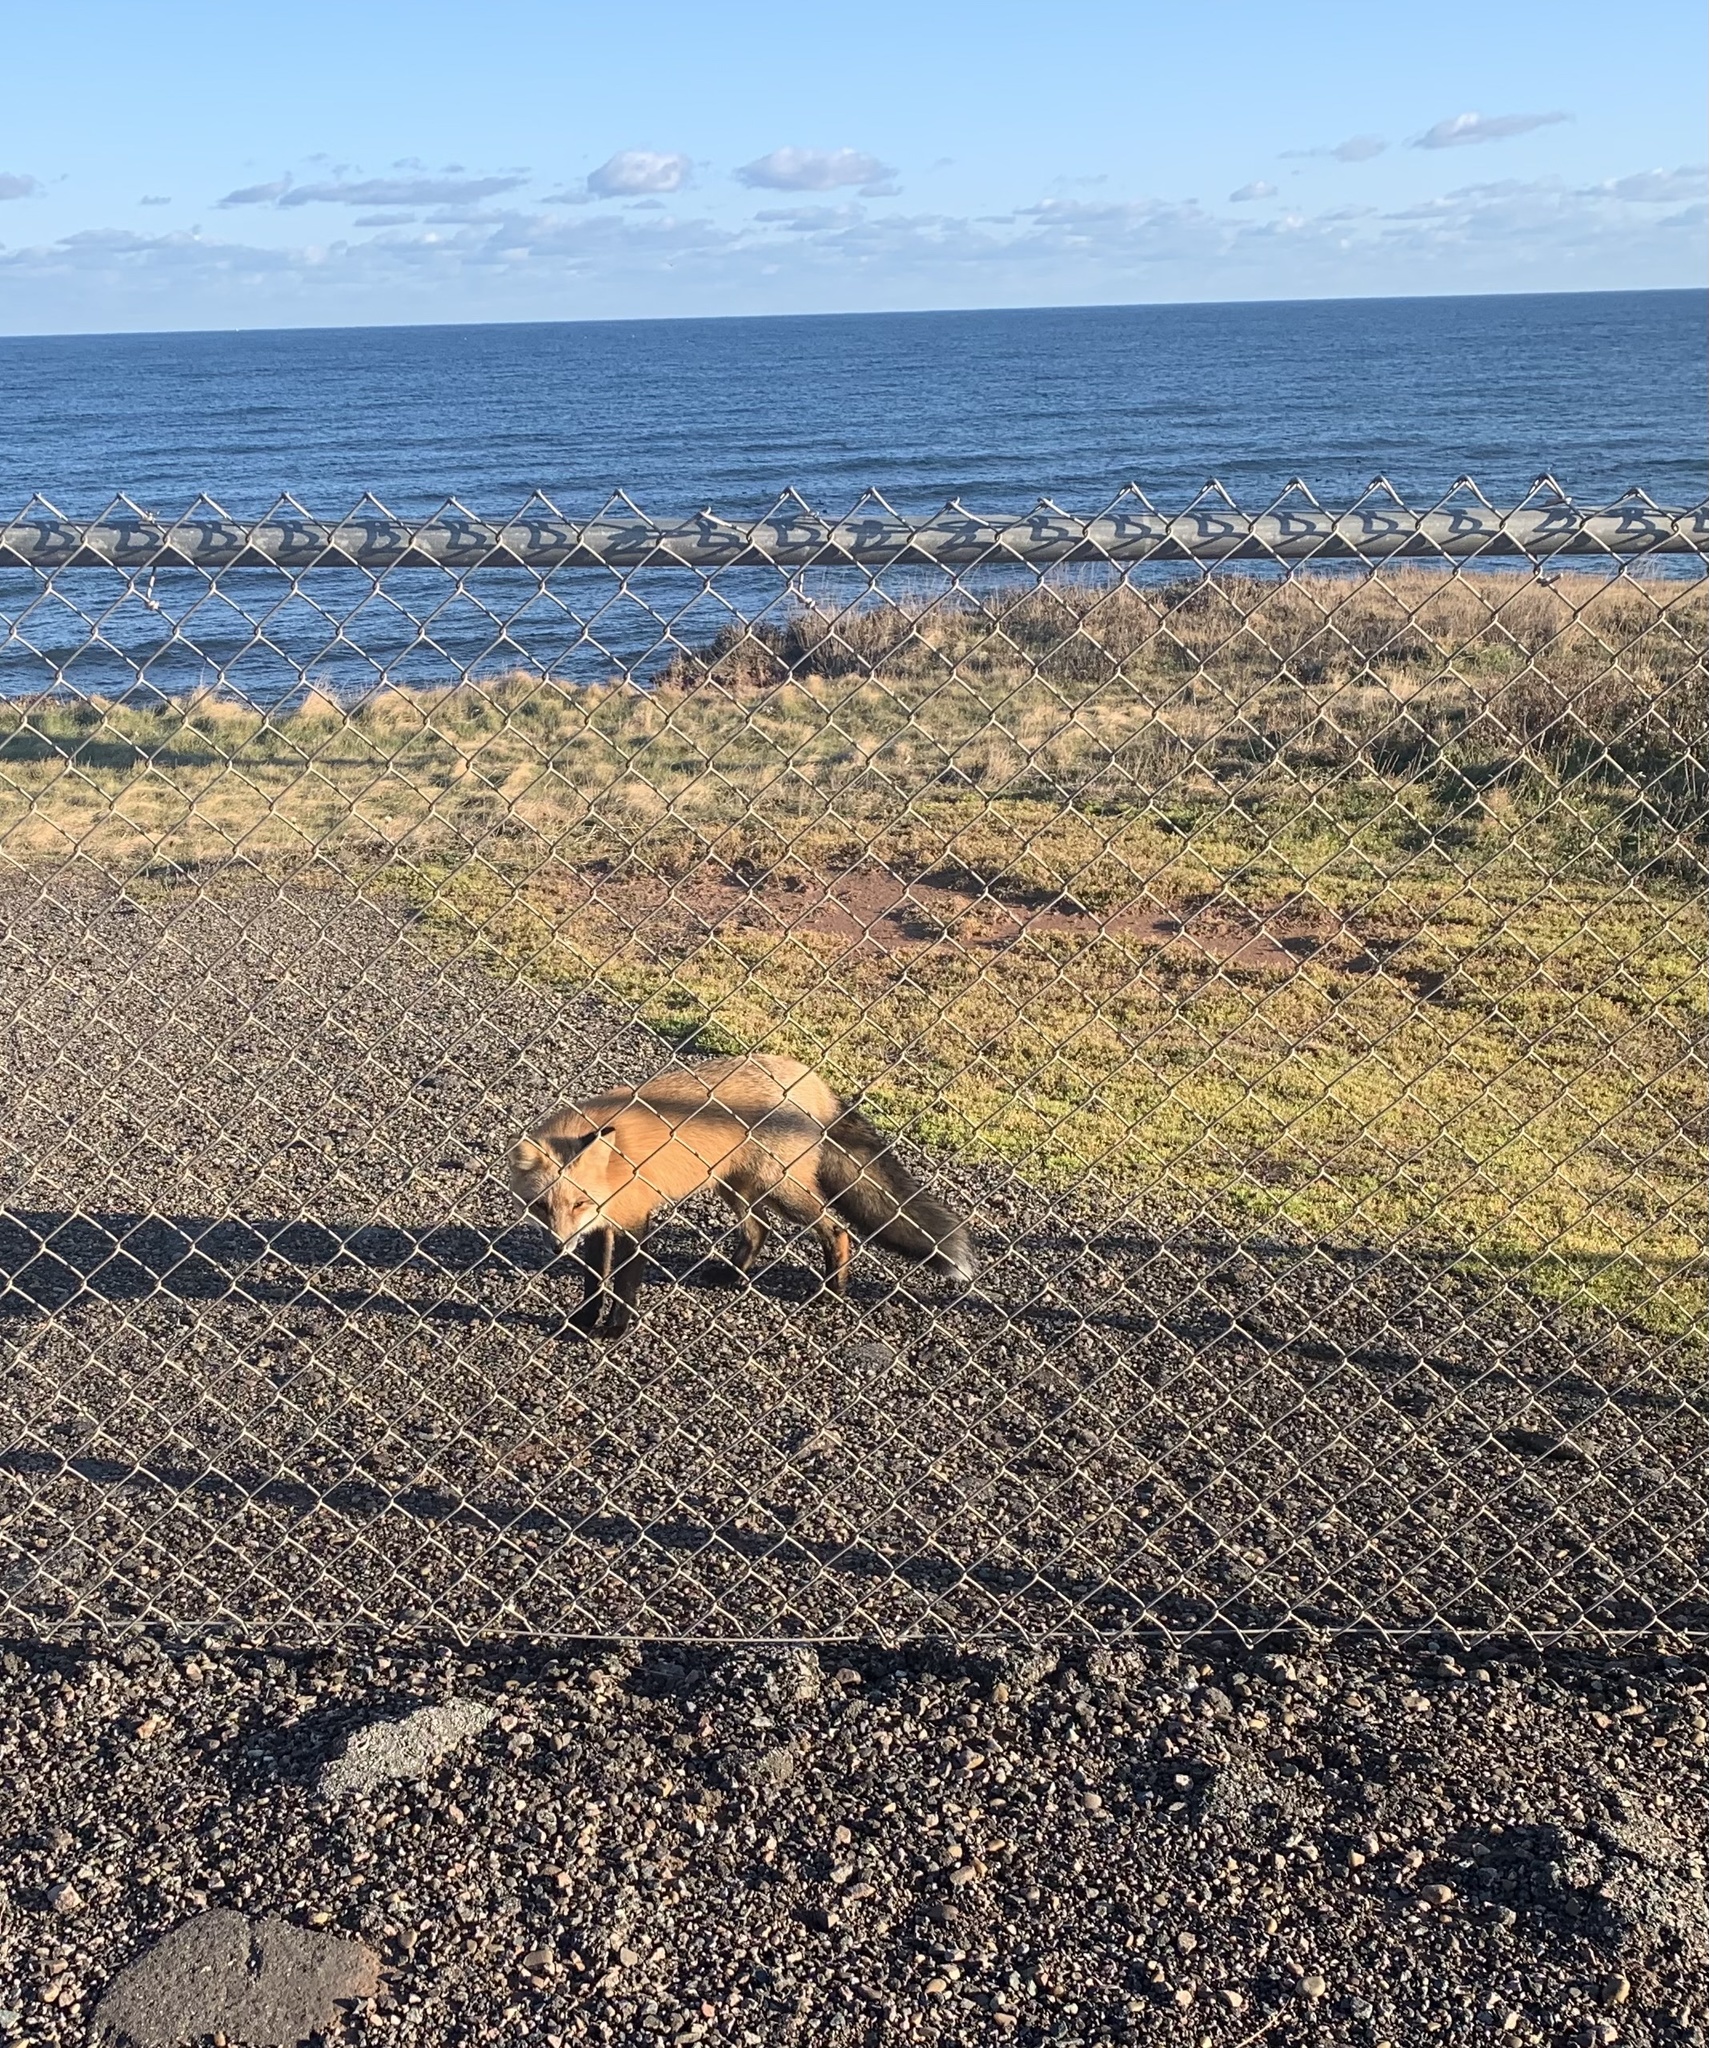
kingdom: Animalia
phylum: Chordata
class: Mammalia
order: Carnivora
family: Canidae
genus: Vulpes
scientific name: Vulpes vulpes
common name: Red fox
